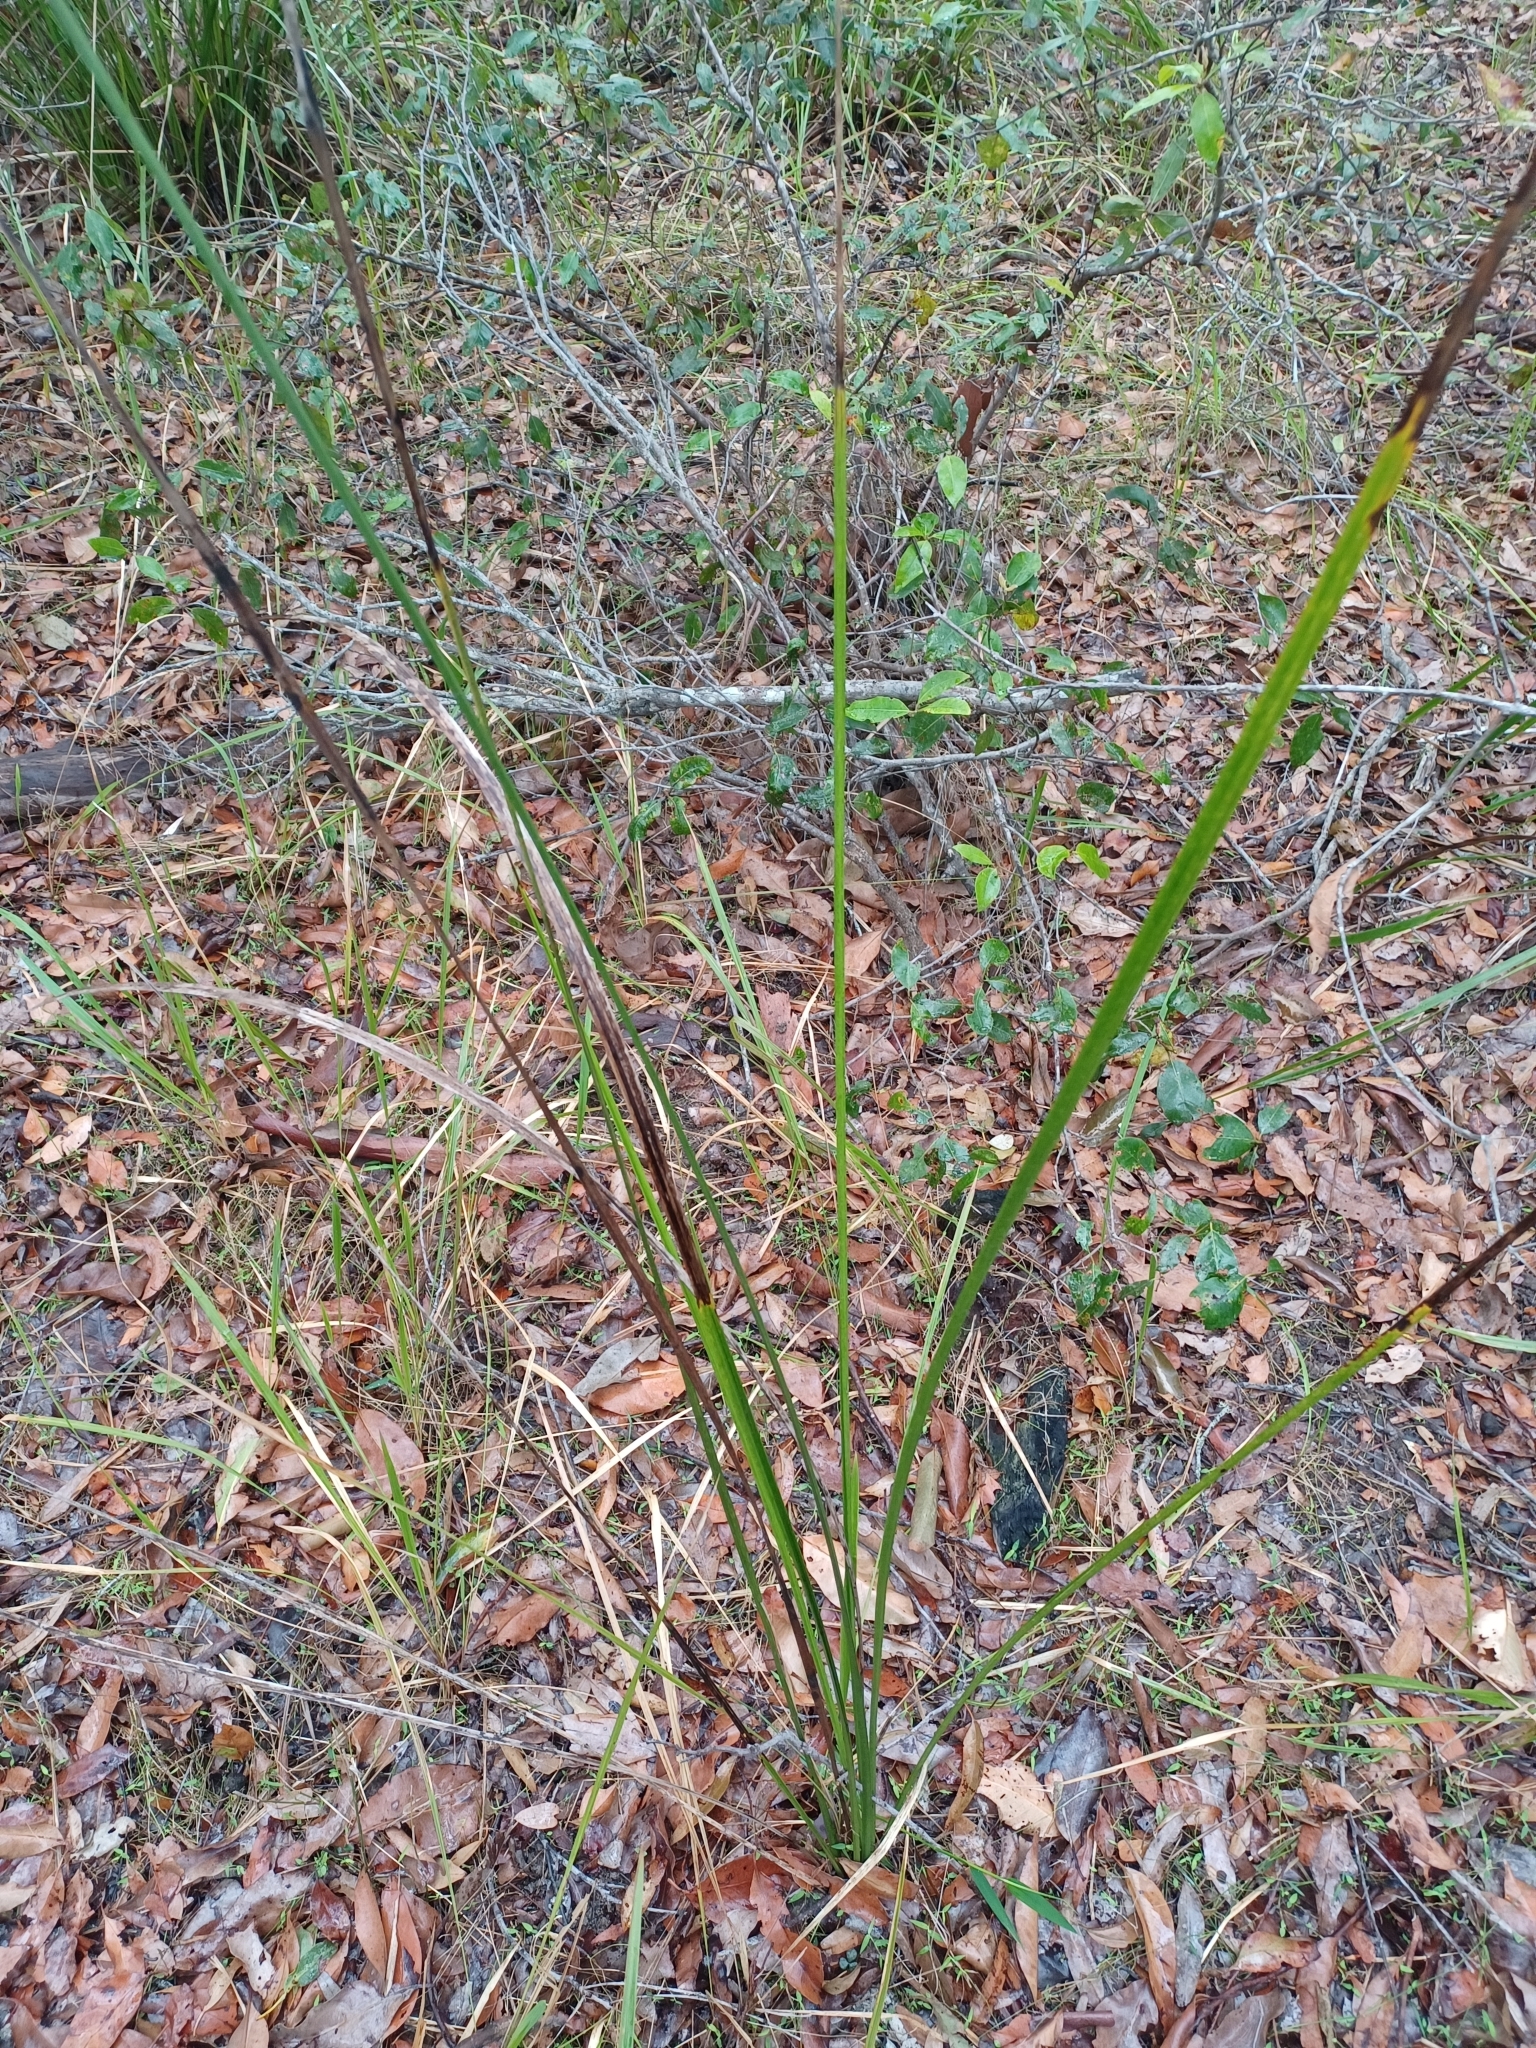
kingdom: Plantae
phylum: Tracheophyta
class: Liliopsida
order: Alismatales
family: Araceae
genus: Gymnostachys
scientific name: Gymnostachys anceps
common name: Settler's-flax
